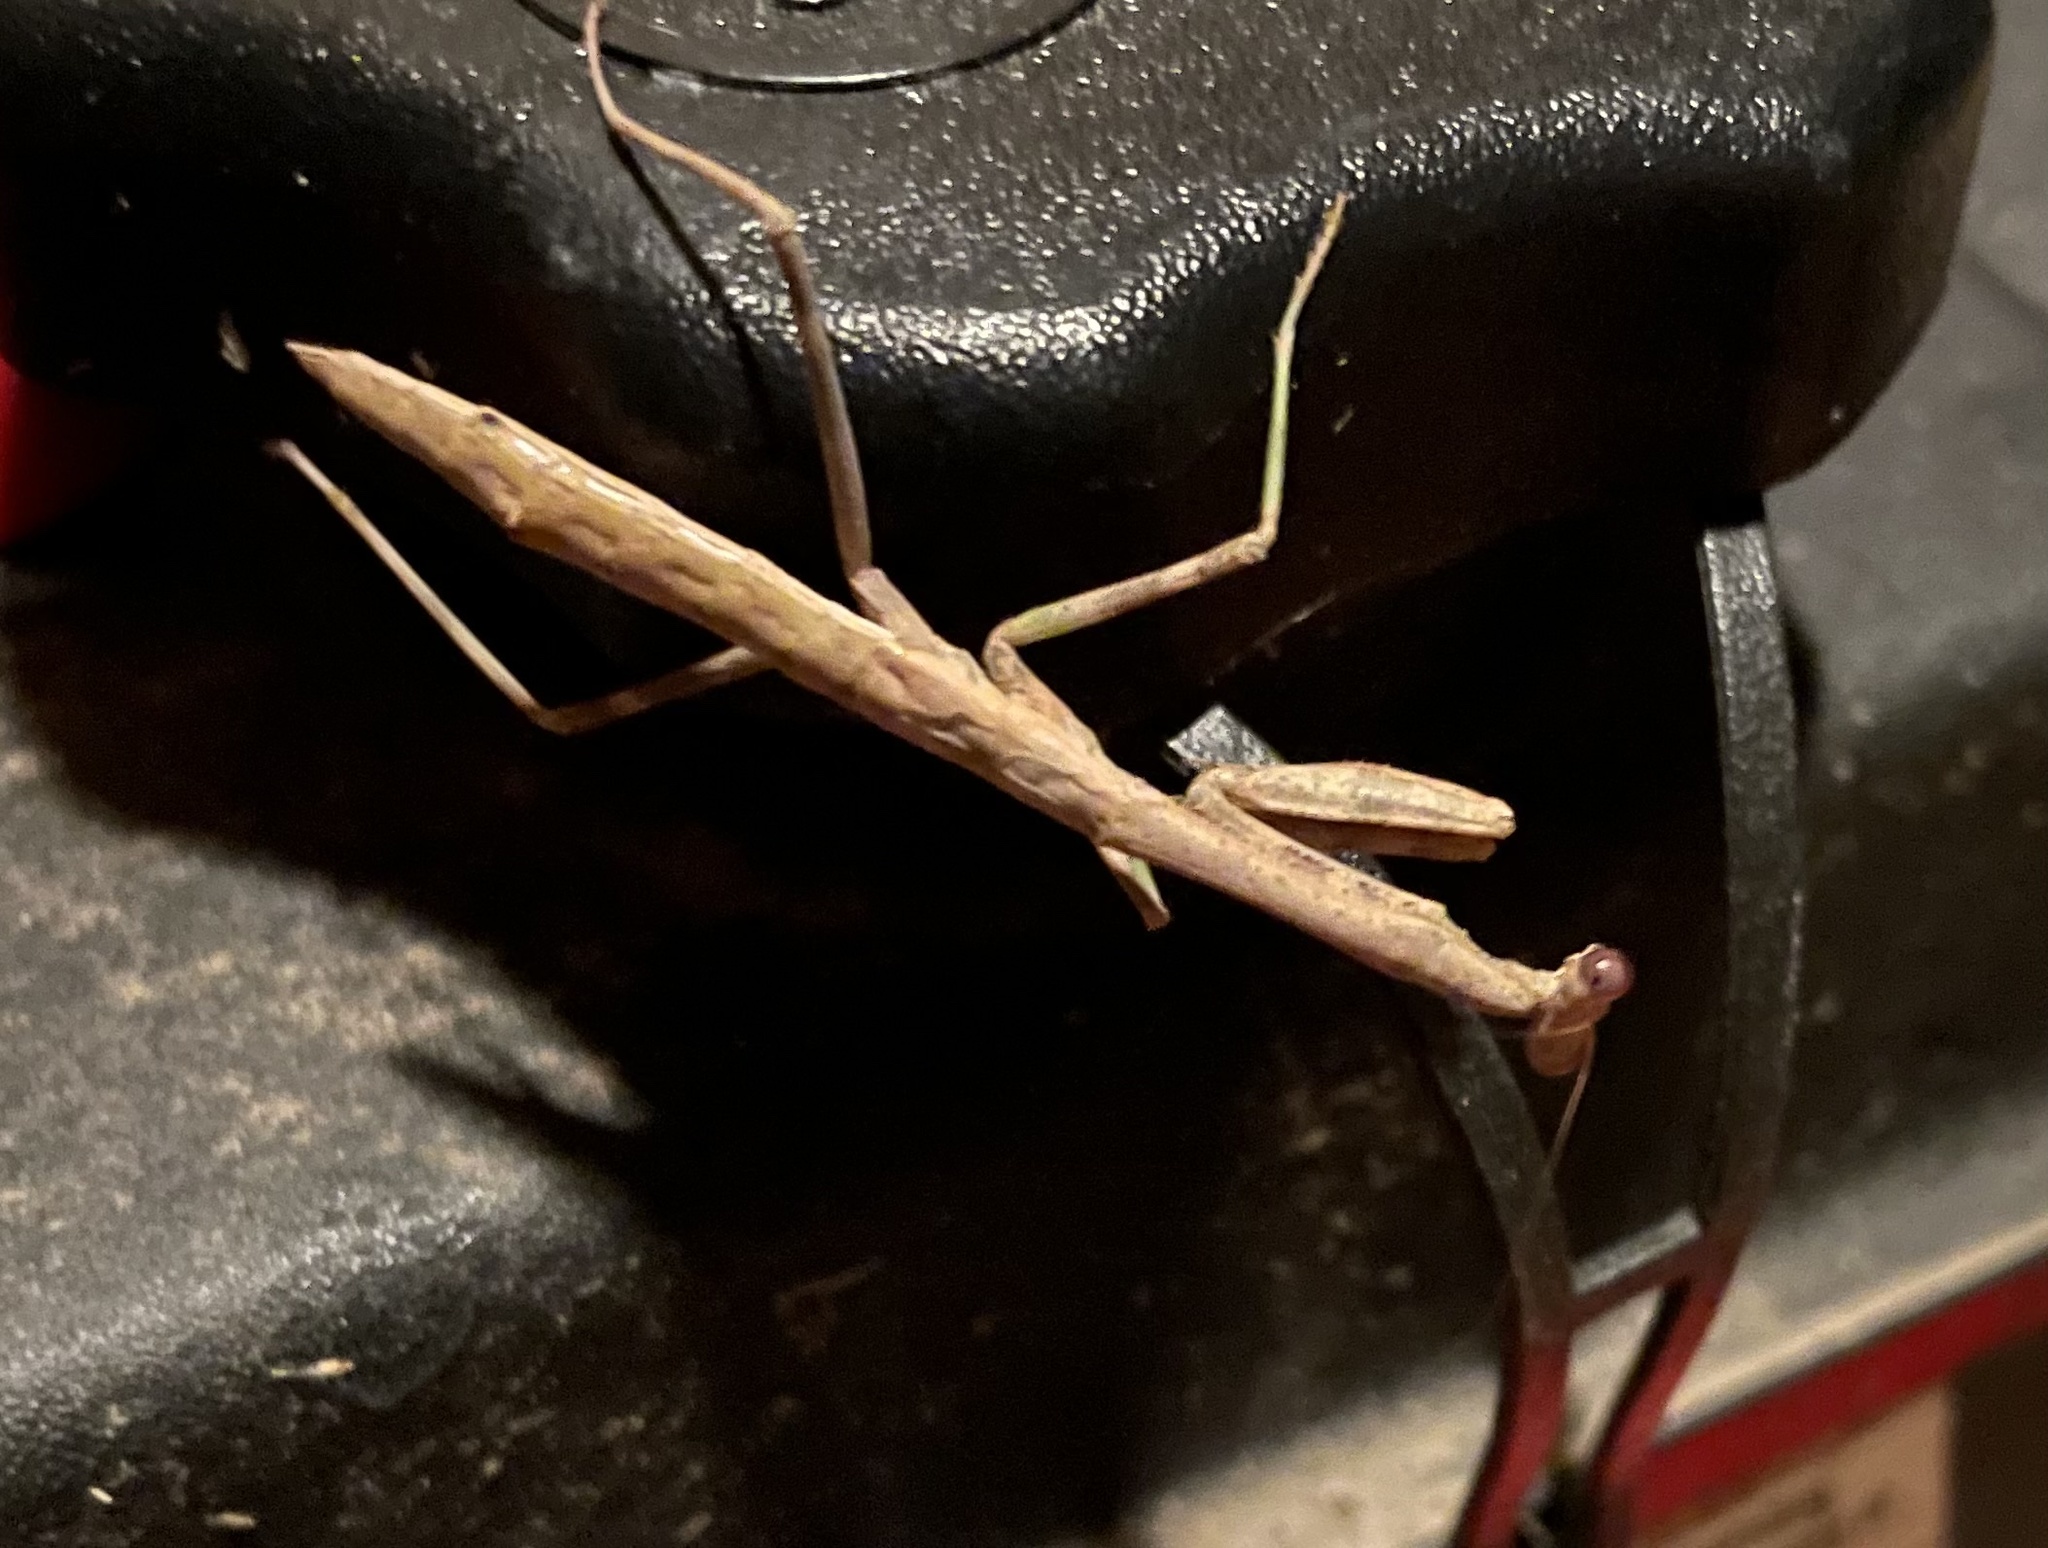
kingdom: Animalia
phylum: Arthropoda
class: Insecta
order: Mantodea
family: Mantidae
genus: Stagmomantis
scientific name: Stagmomantis carolina
